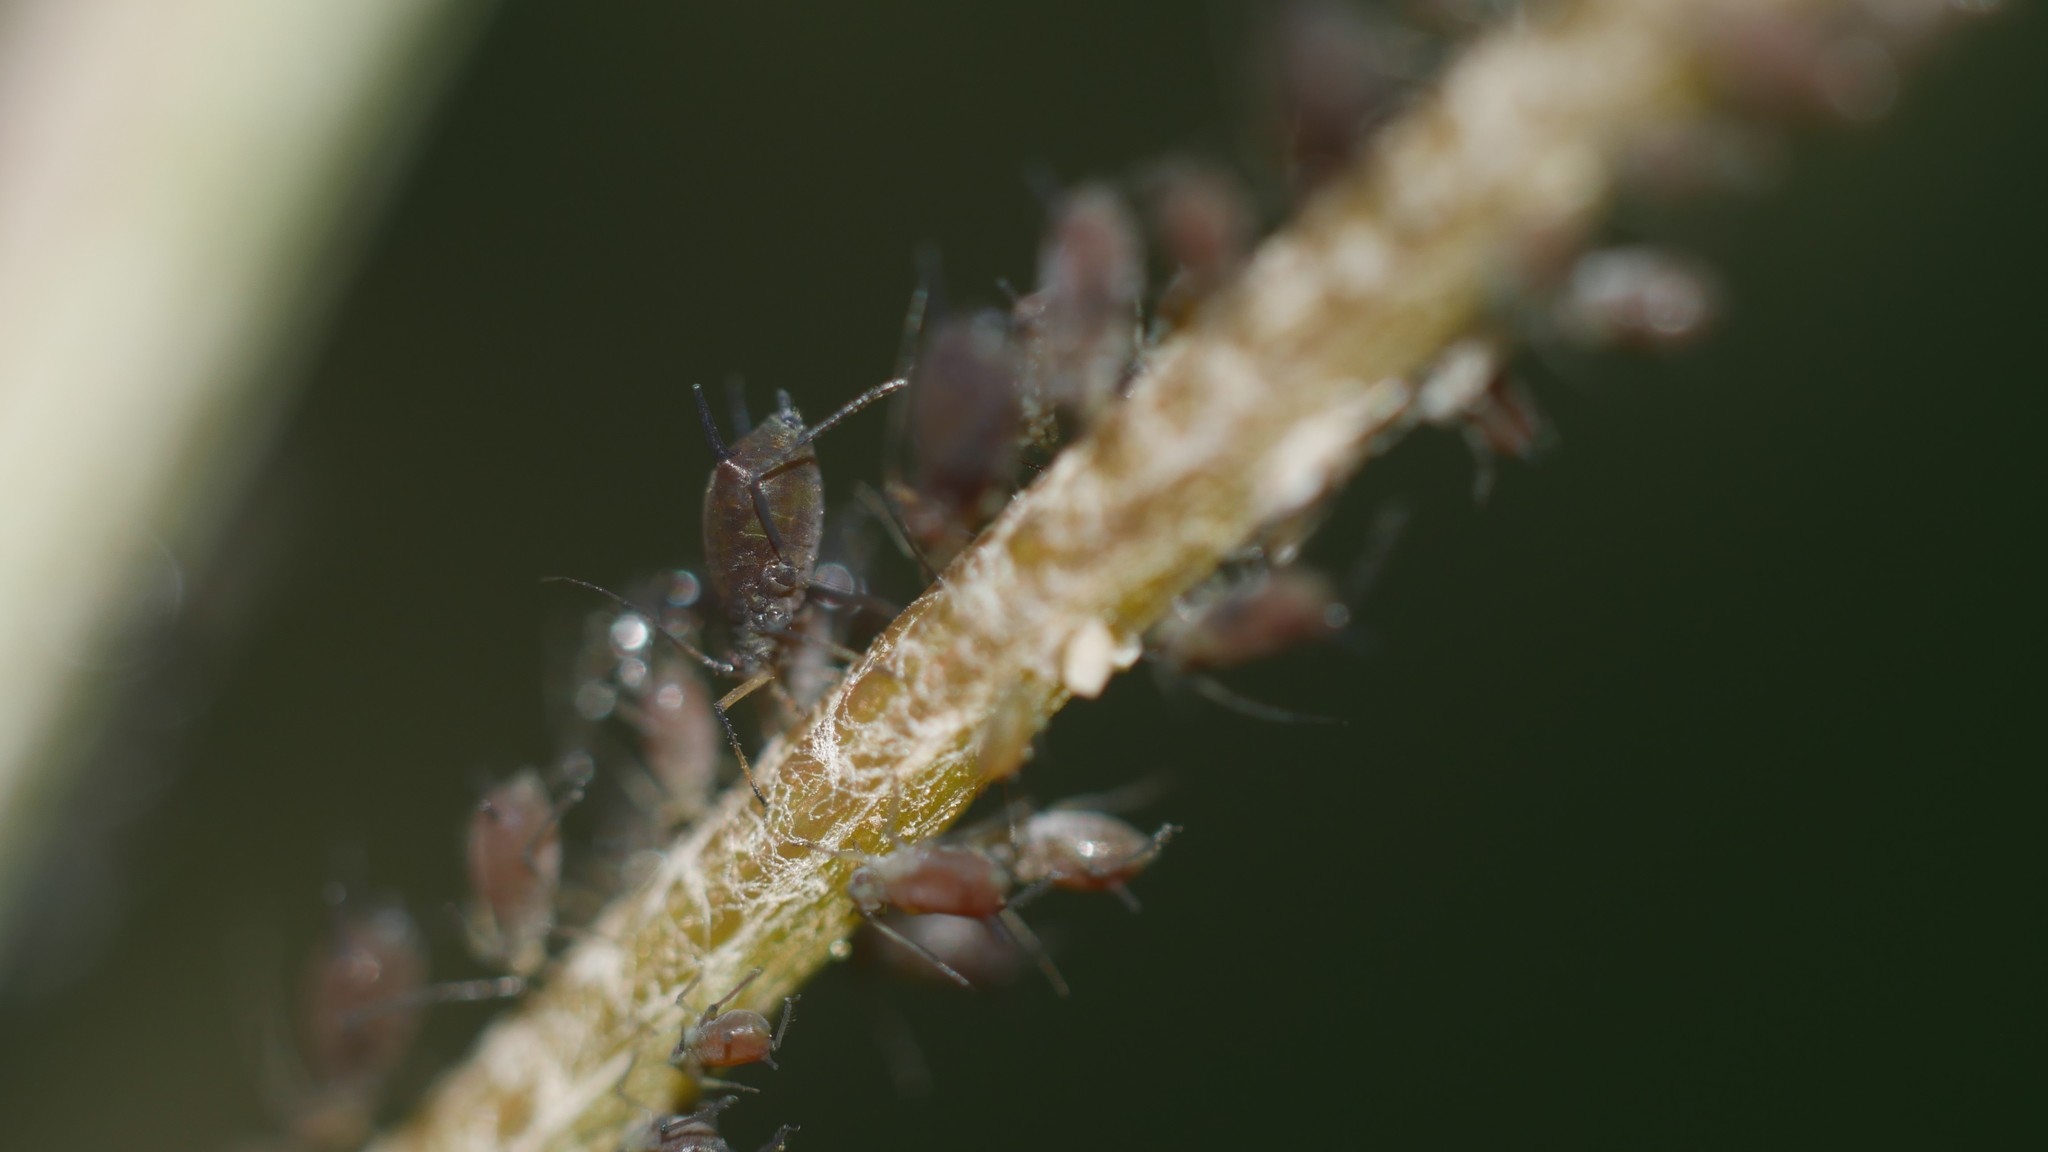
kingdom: Animalia
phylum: Arthropoda
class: Insecta
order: Hemiptera
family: Aphididae
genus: Aphis
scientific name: Aphis illinoisensis
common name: Grapevine aphid
